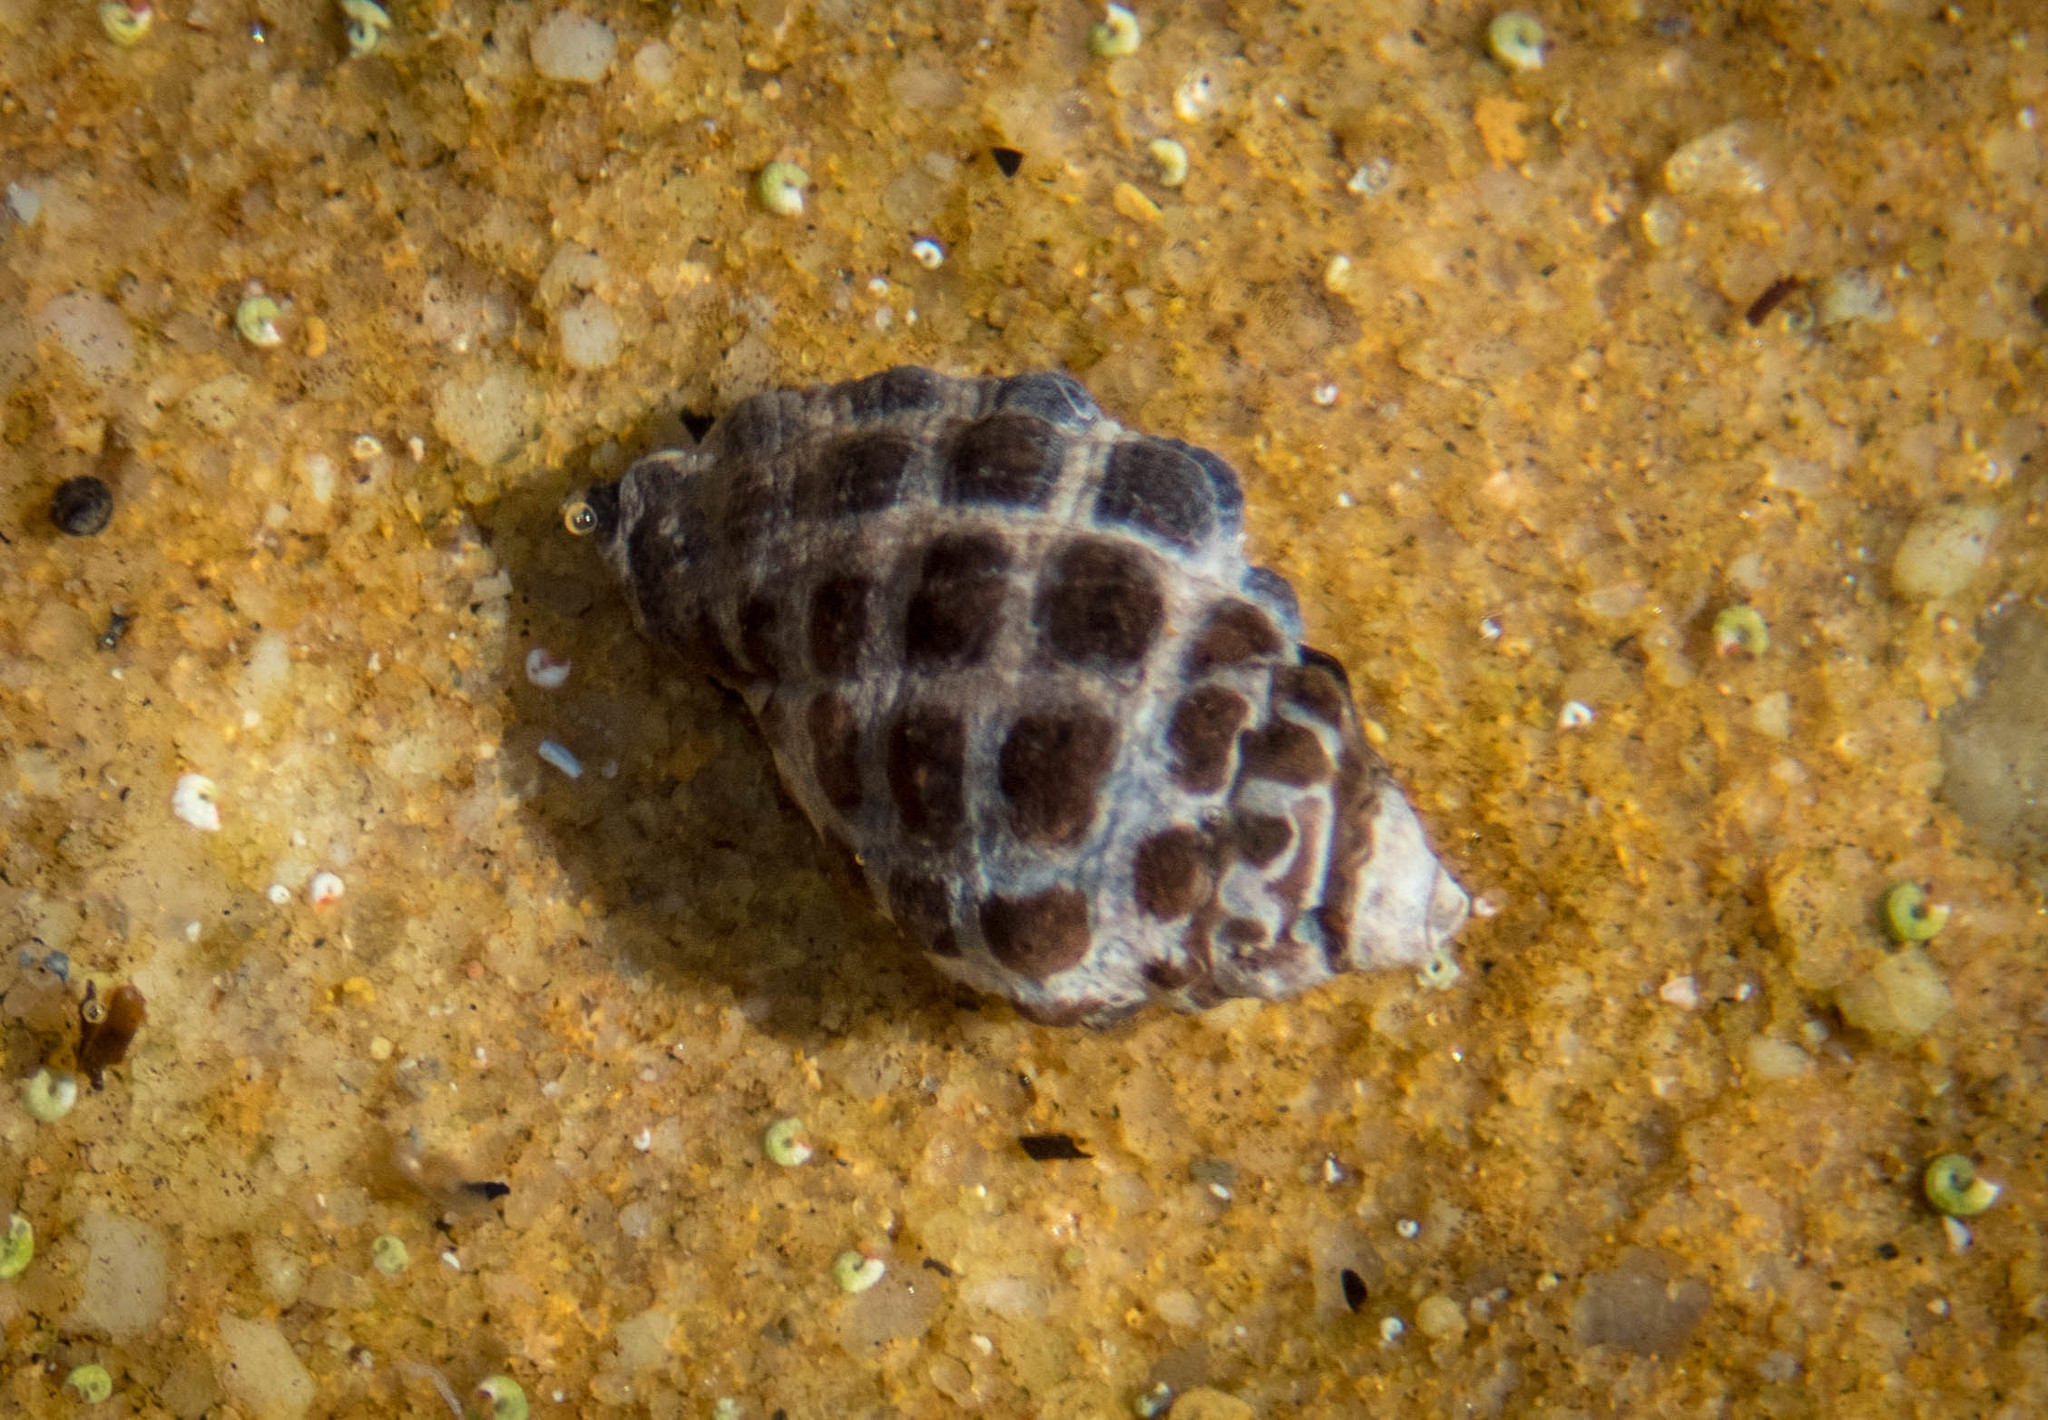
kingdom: Animalia
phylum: Mollusca
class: Gastropoda
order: Neogastropoda
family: Muricidae
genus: Tenguella
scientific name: Tenguella marginalba
